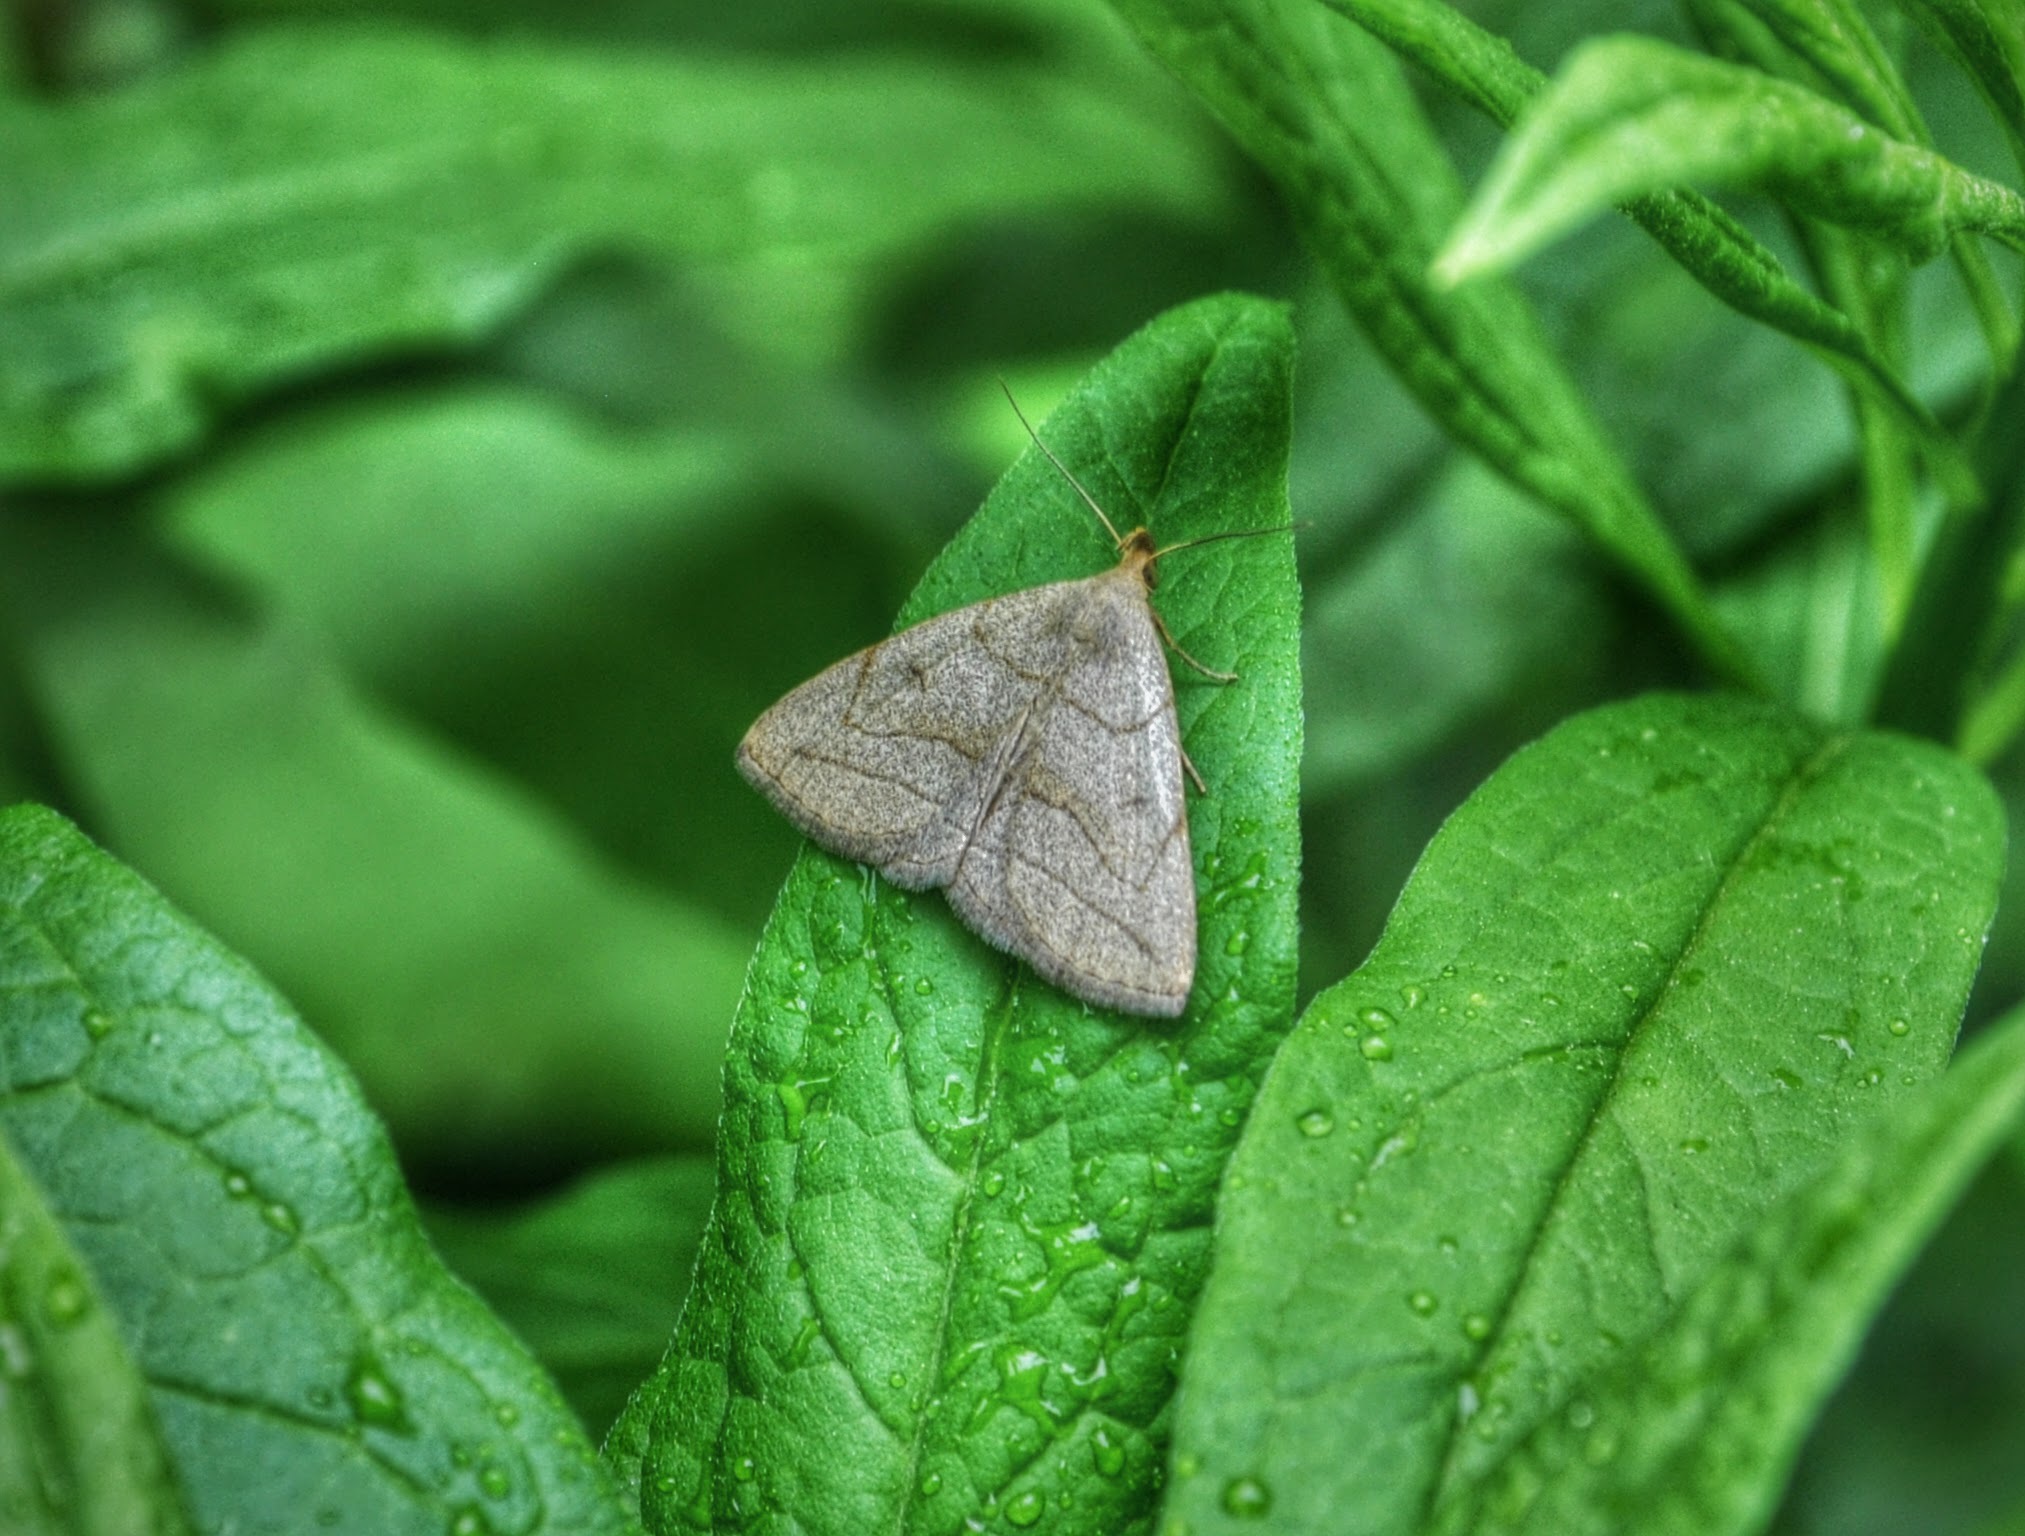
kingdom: Animalia
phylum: Arthropoda
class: Insecta
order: Lepidoptera
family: Erebidae
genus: Zanclognatha
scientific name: Zanclognatha pedipilalis
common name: Grayish fan-foot
